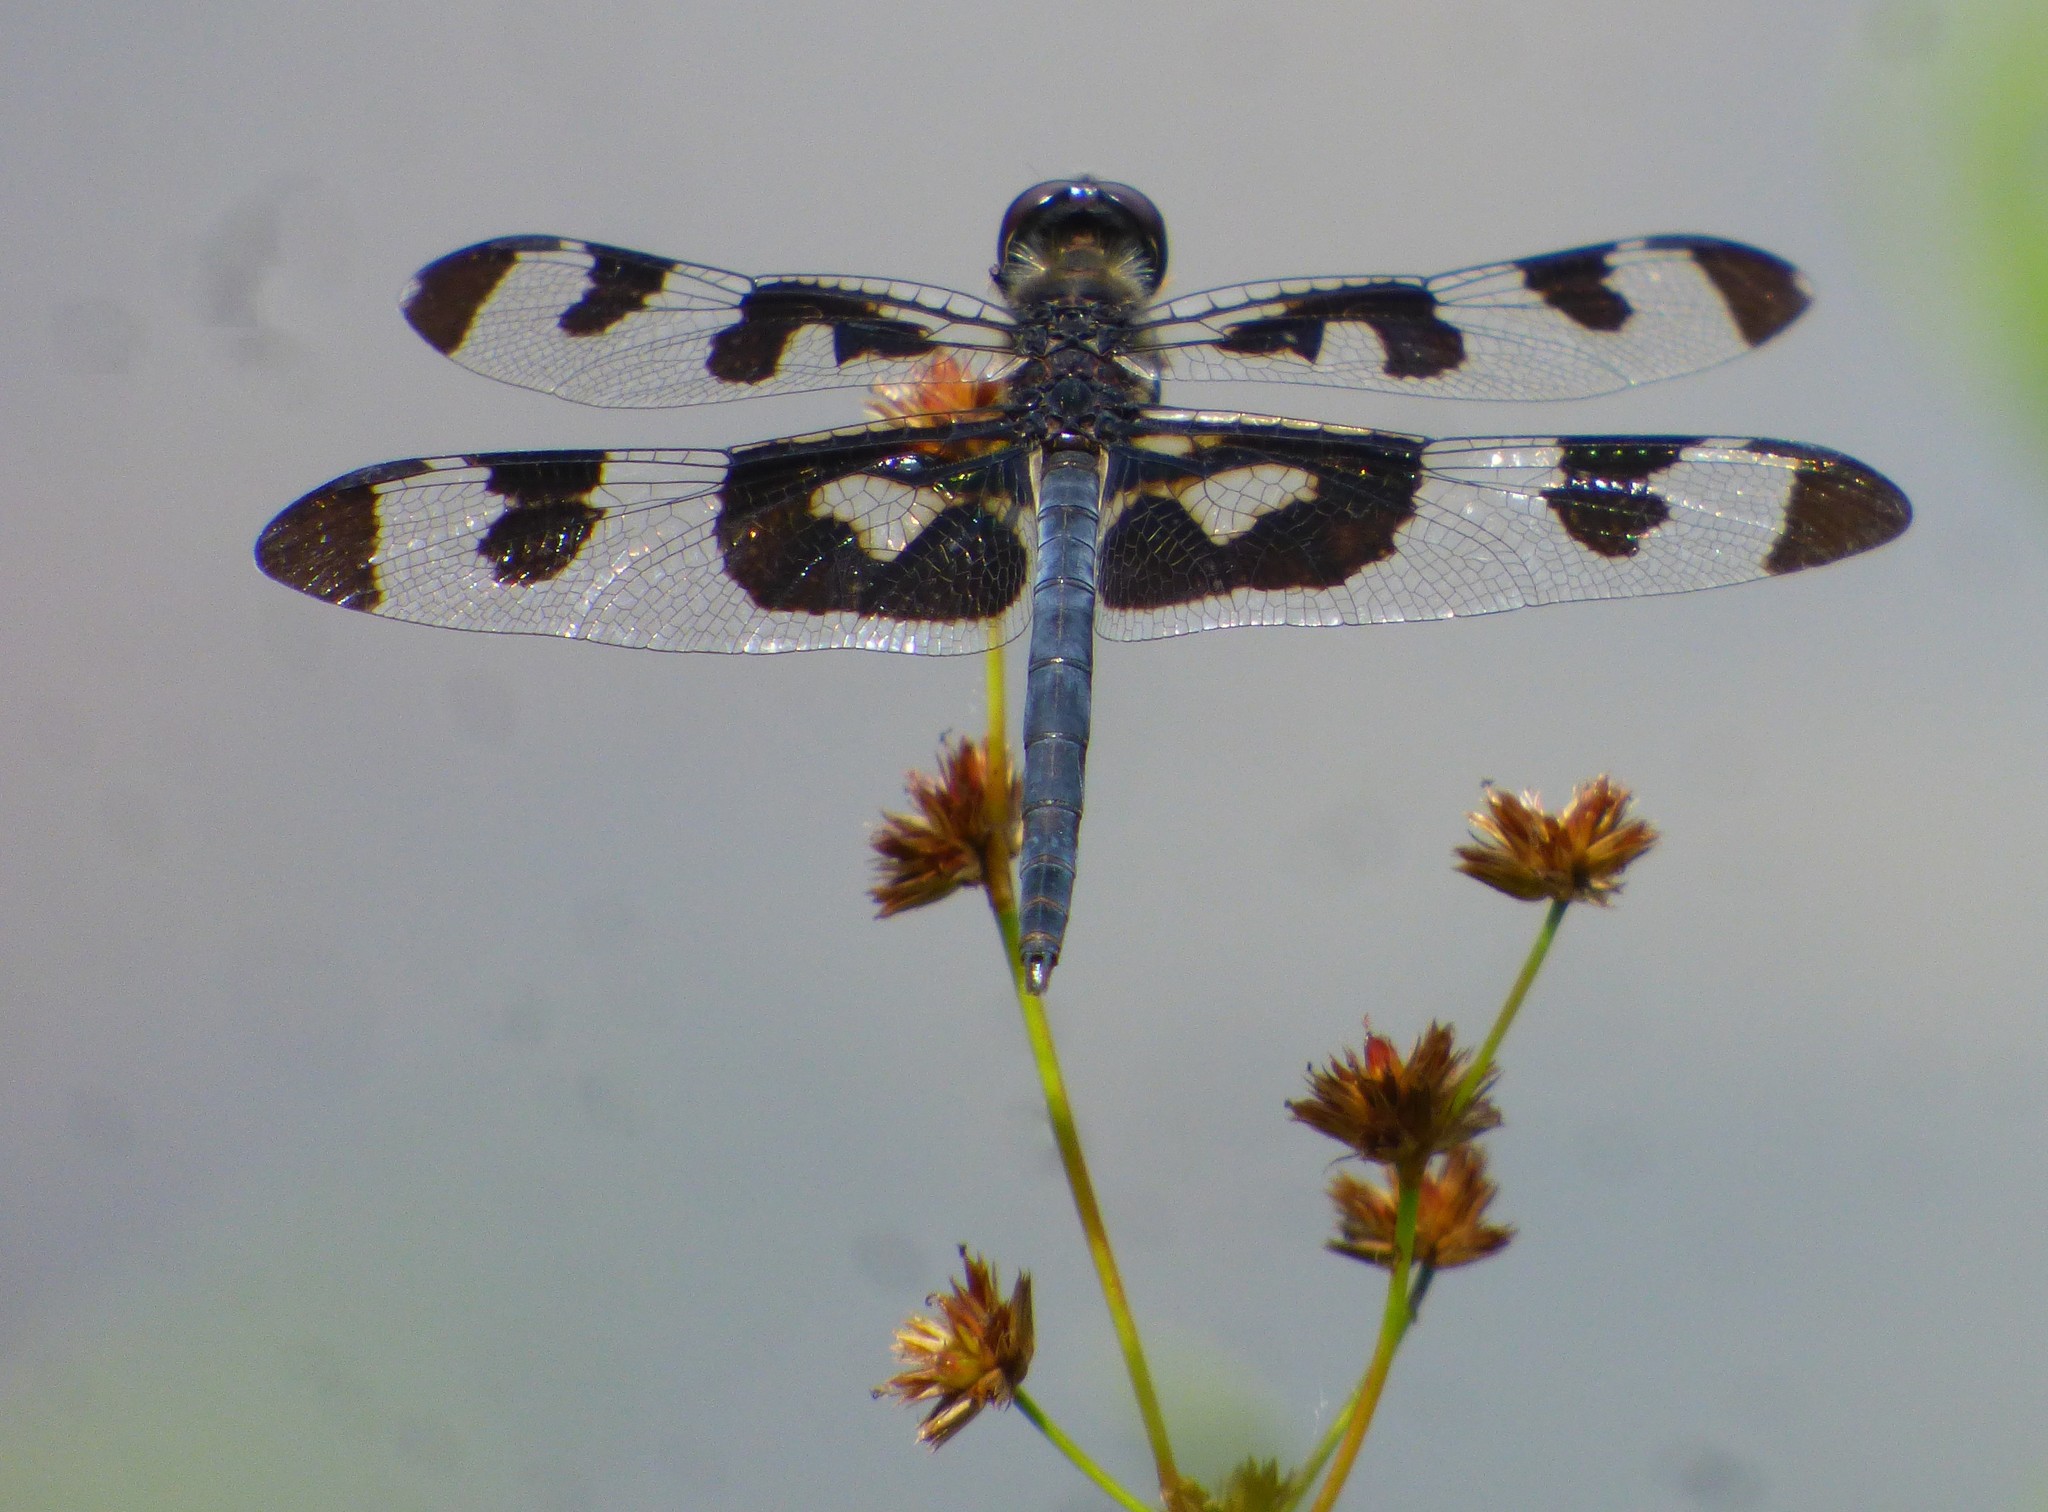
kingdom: Animalia
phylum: Arthropoda
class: Insecta
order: Odonata
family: Libellulidae
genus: Celithemis
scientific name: Celithemis fasciata
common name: Banded pennant
